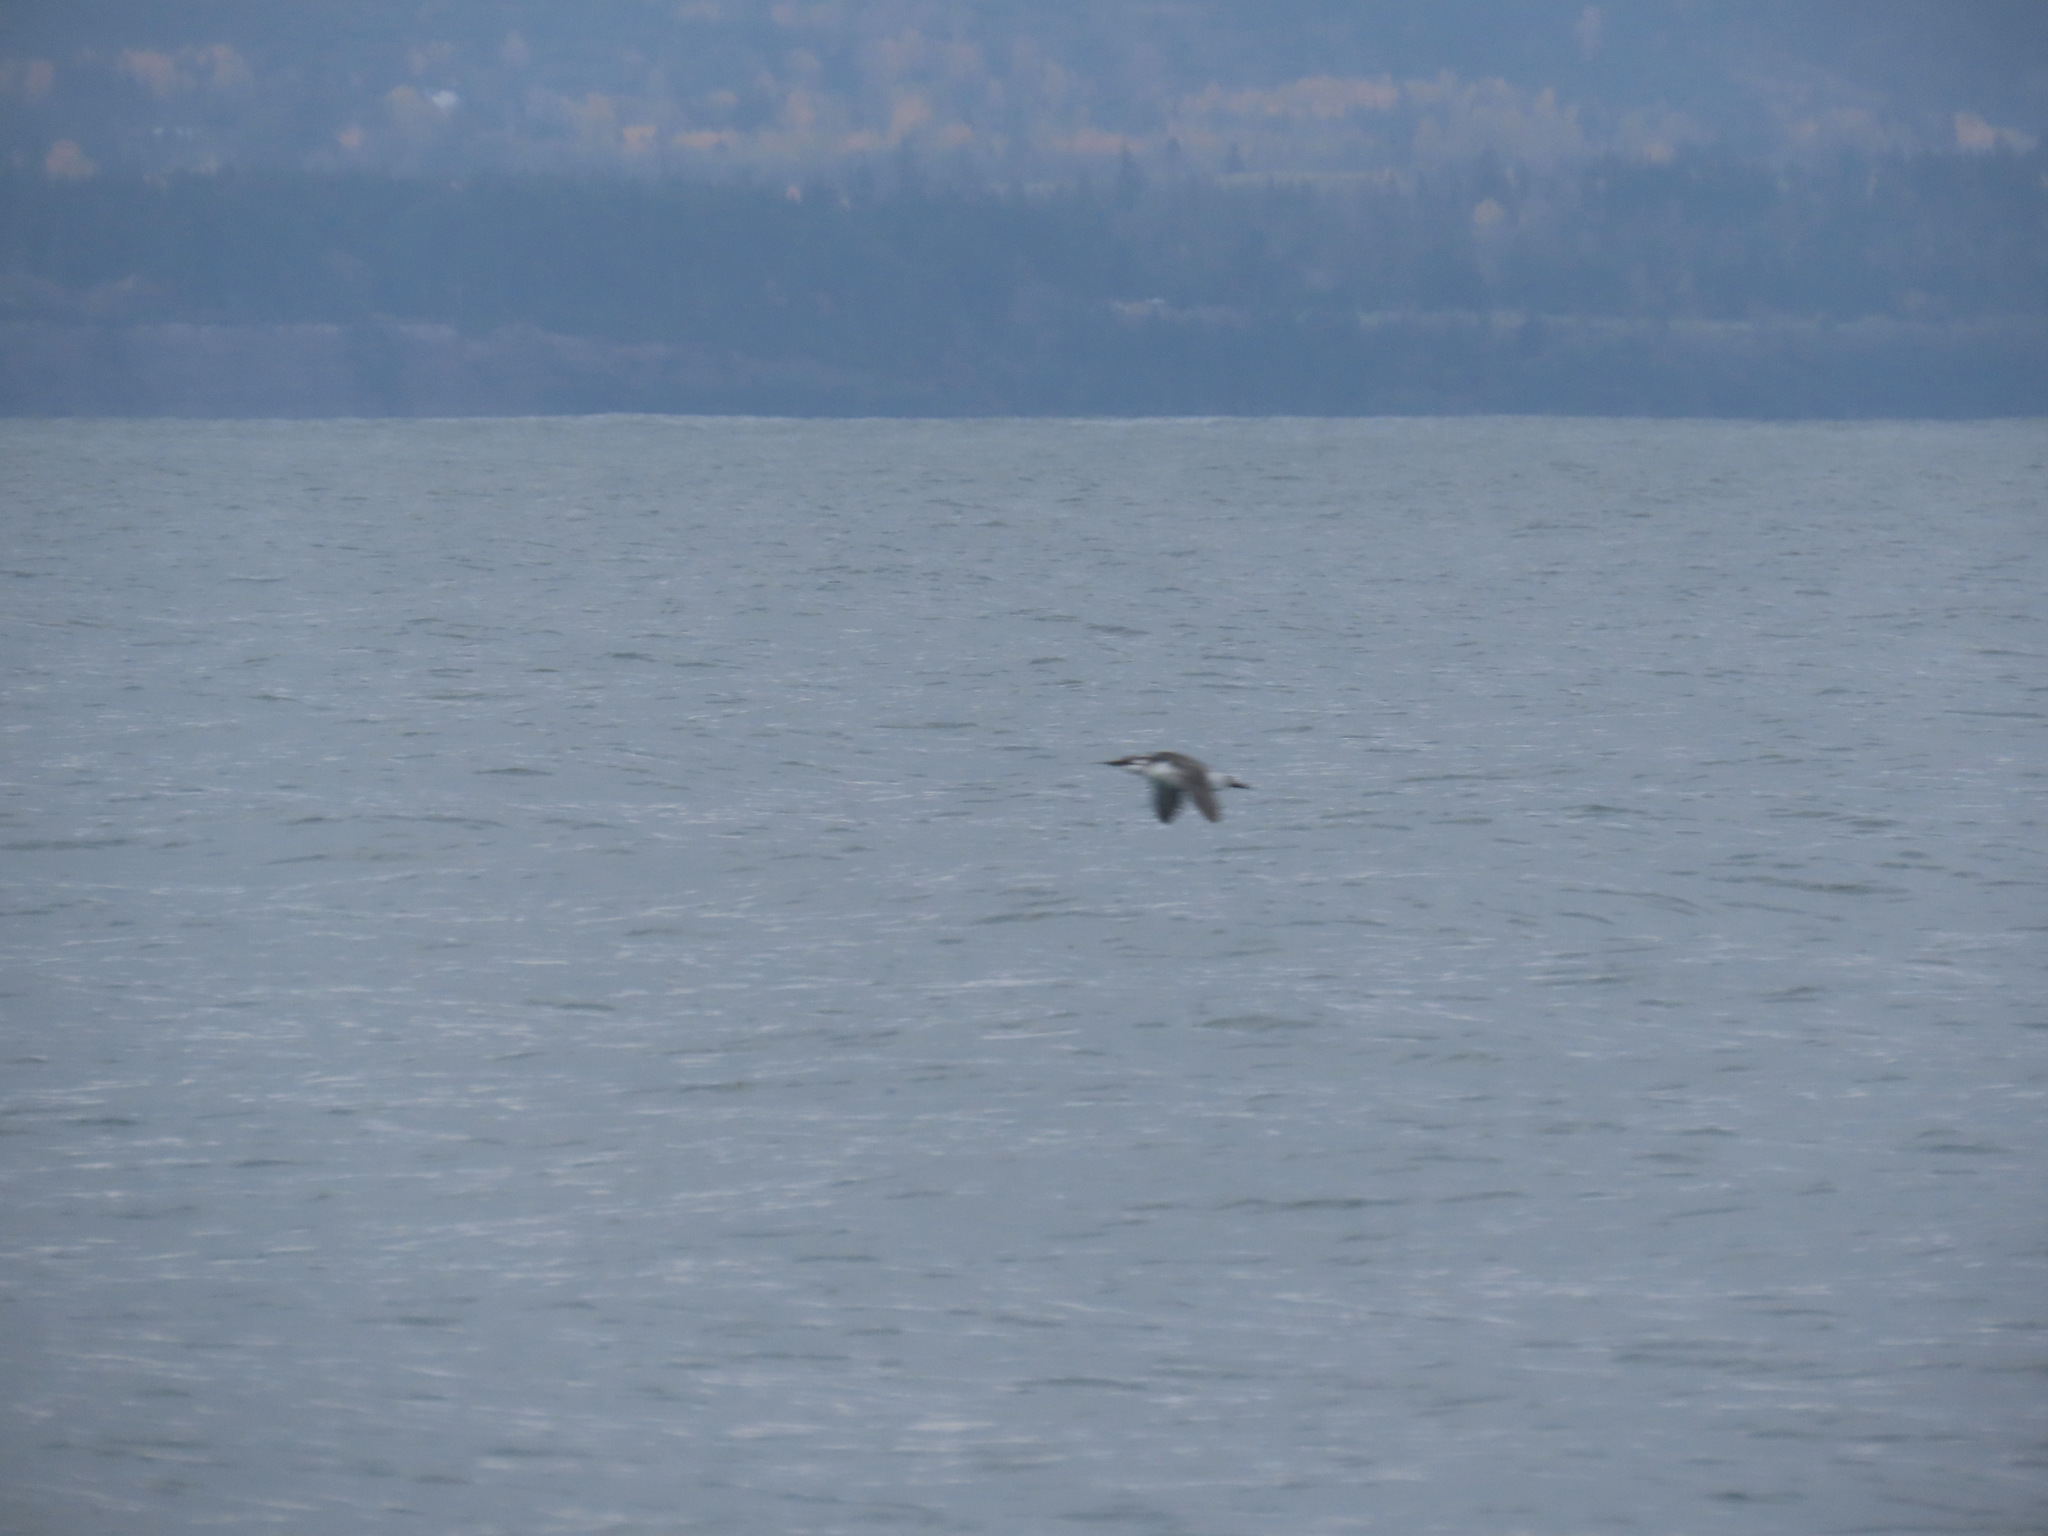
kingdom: Animalia
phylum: Chordata
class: Aves
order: Charadriiformes
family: Alcidae
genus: Uria
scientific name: Uria aalge
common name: Common murre
